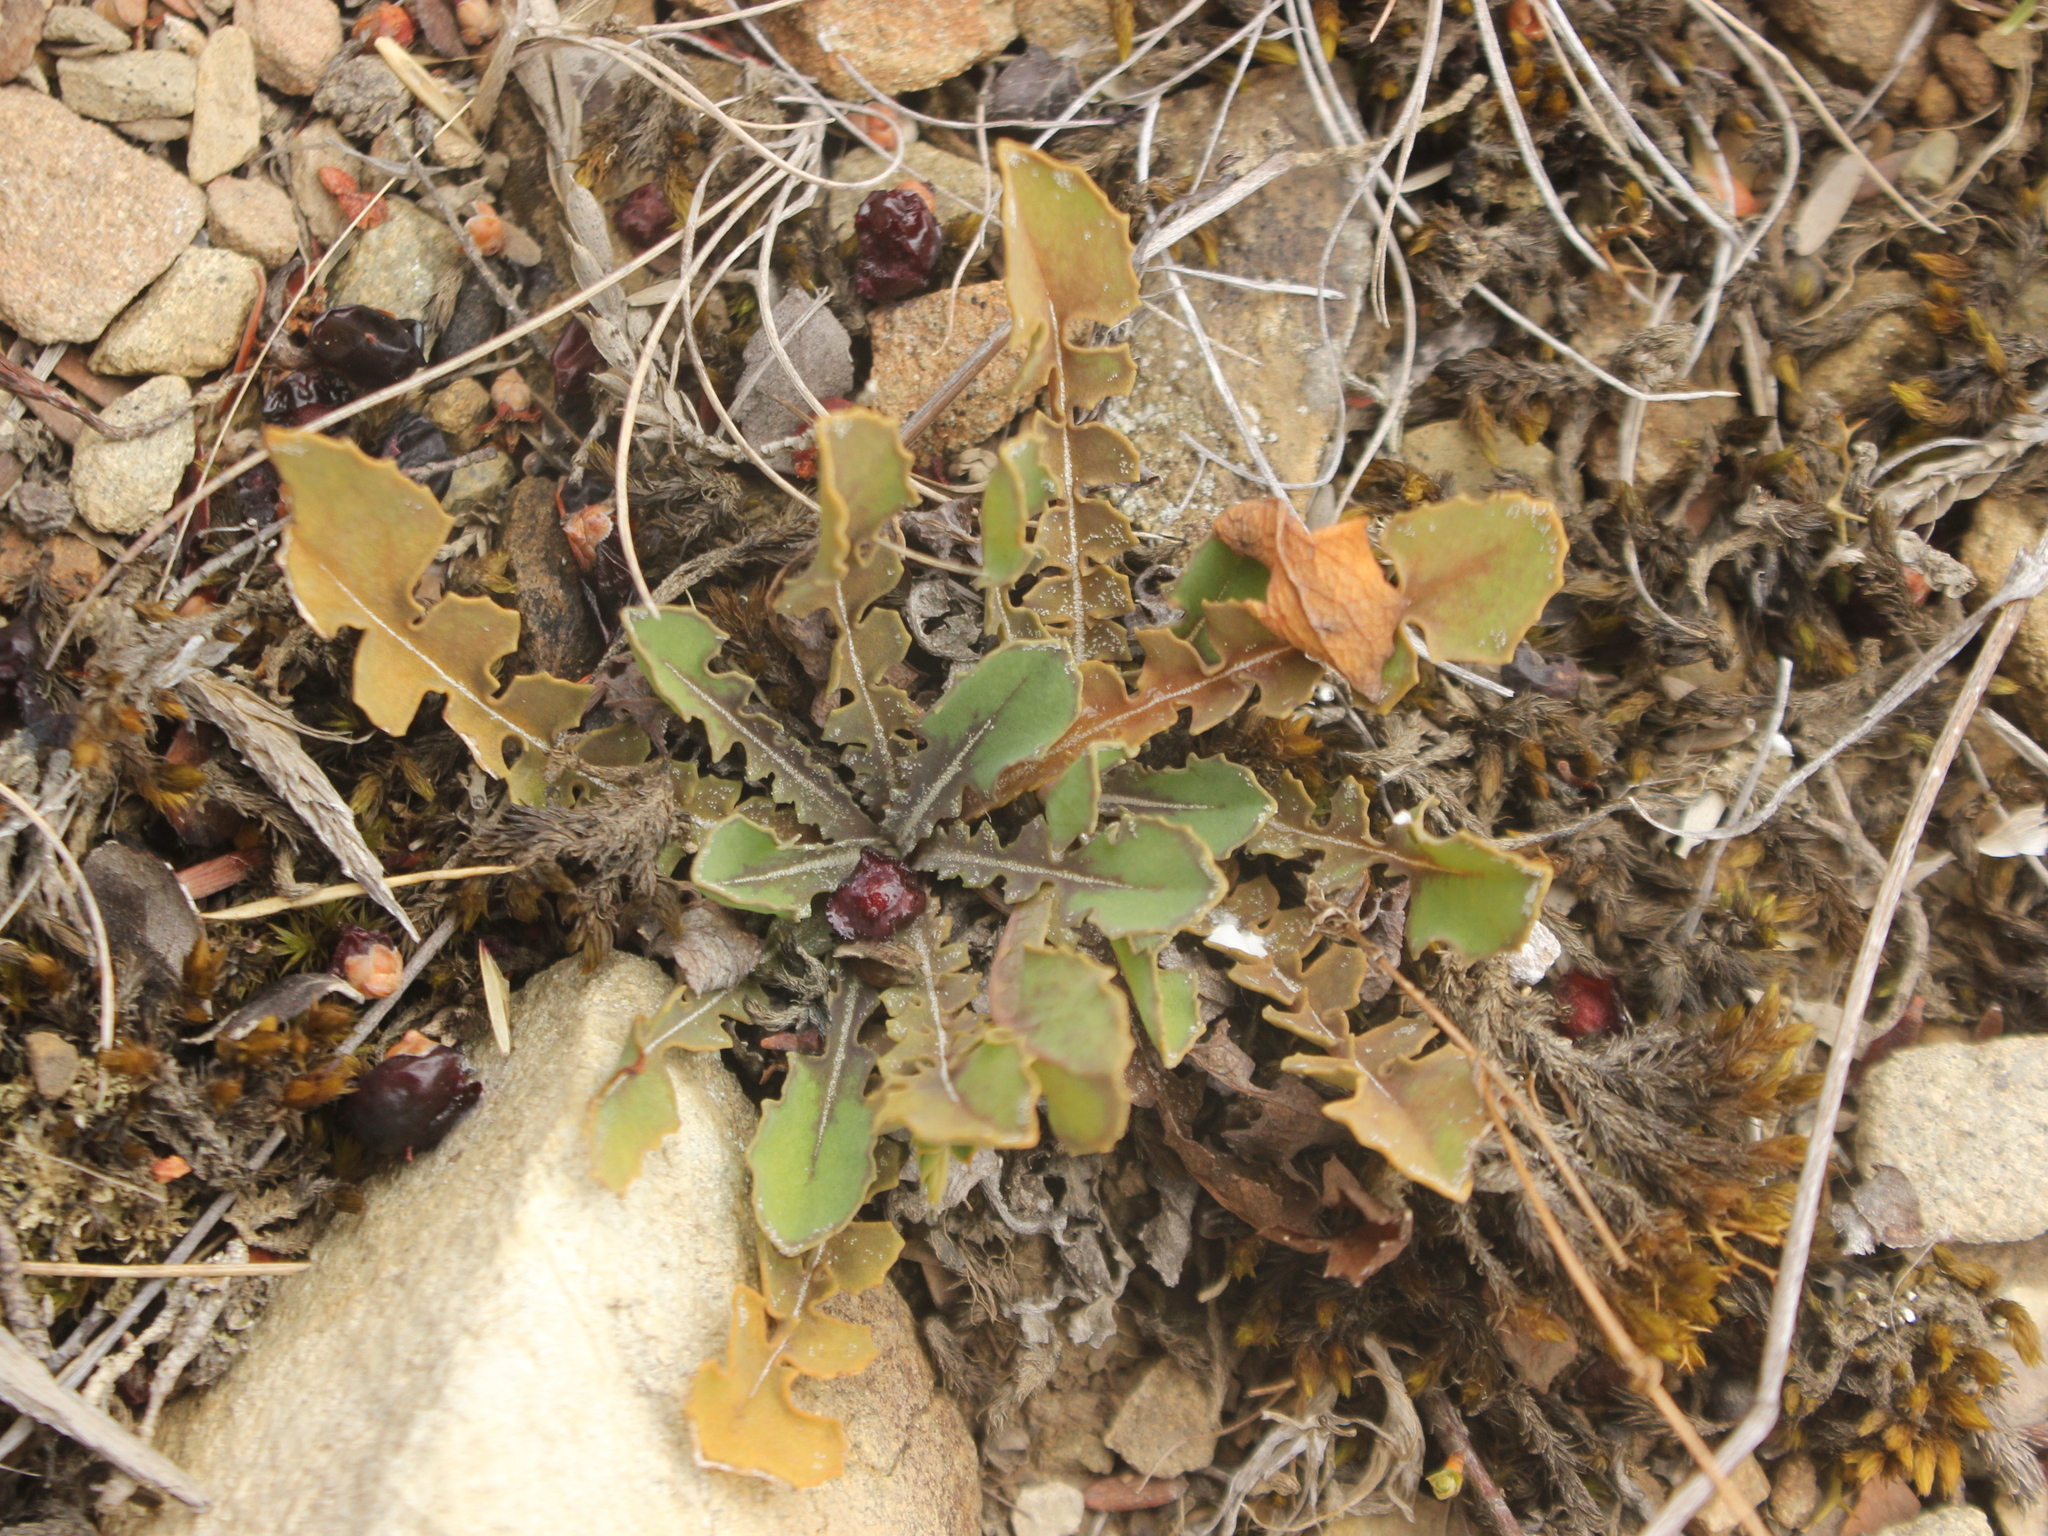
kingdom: Plantae
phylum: Tracheophyta
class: Magnoliopsida
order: Asterales
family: Asteraceae
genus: Sonchus
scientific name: Sonchus novae-zelandiae
